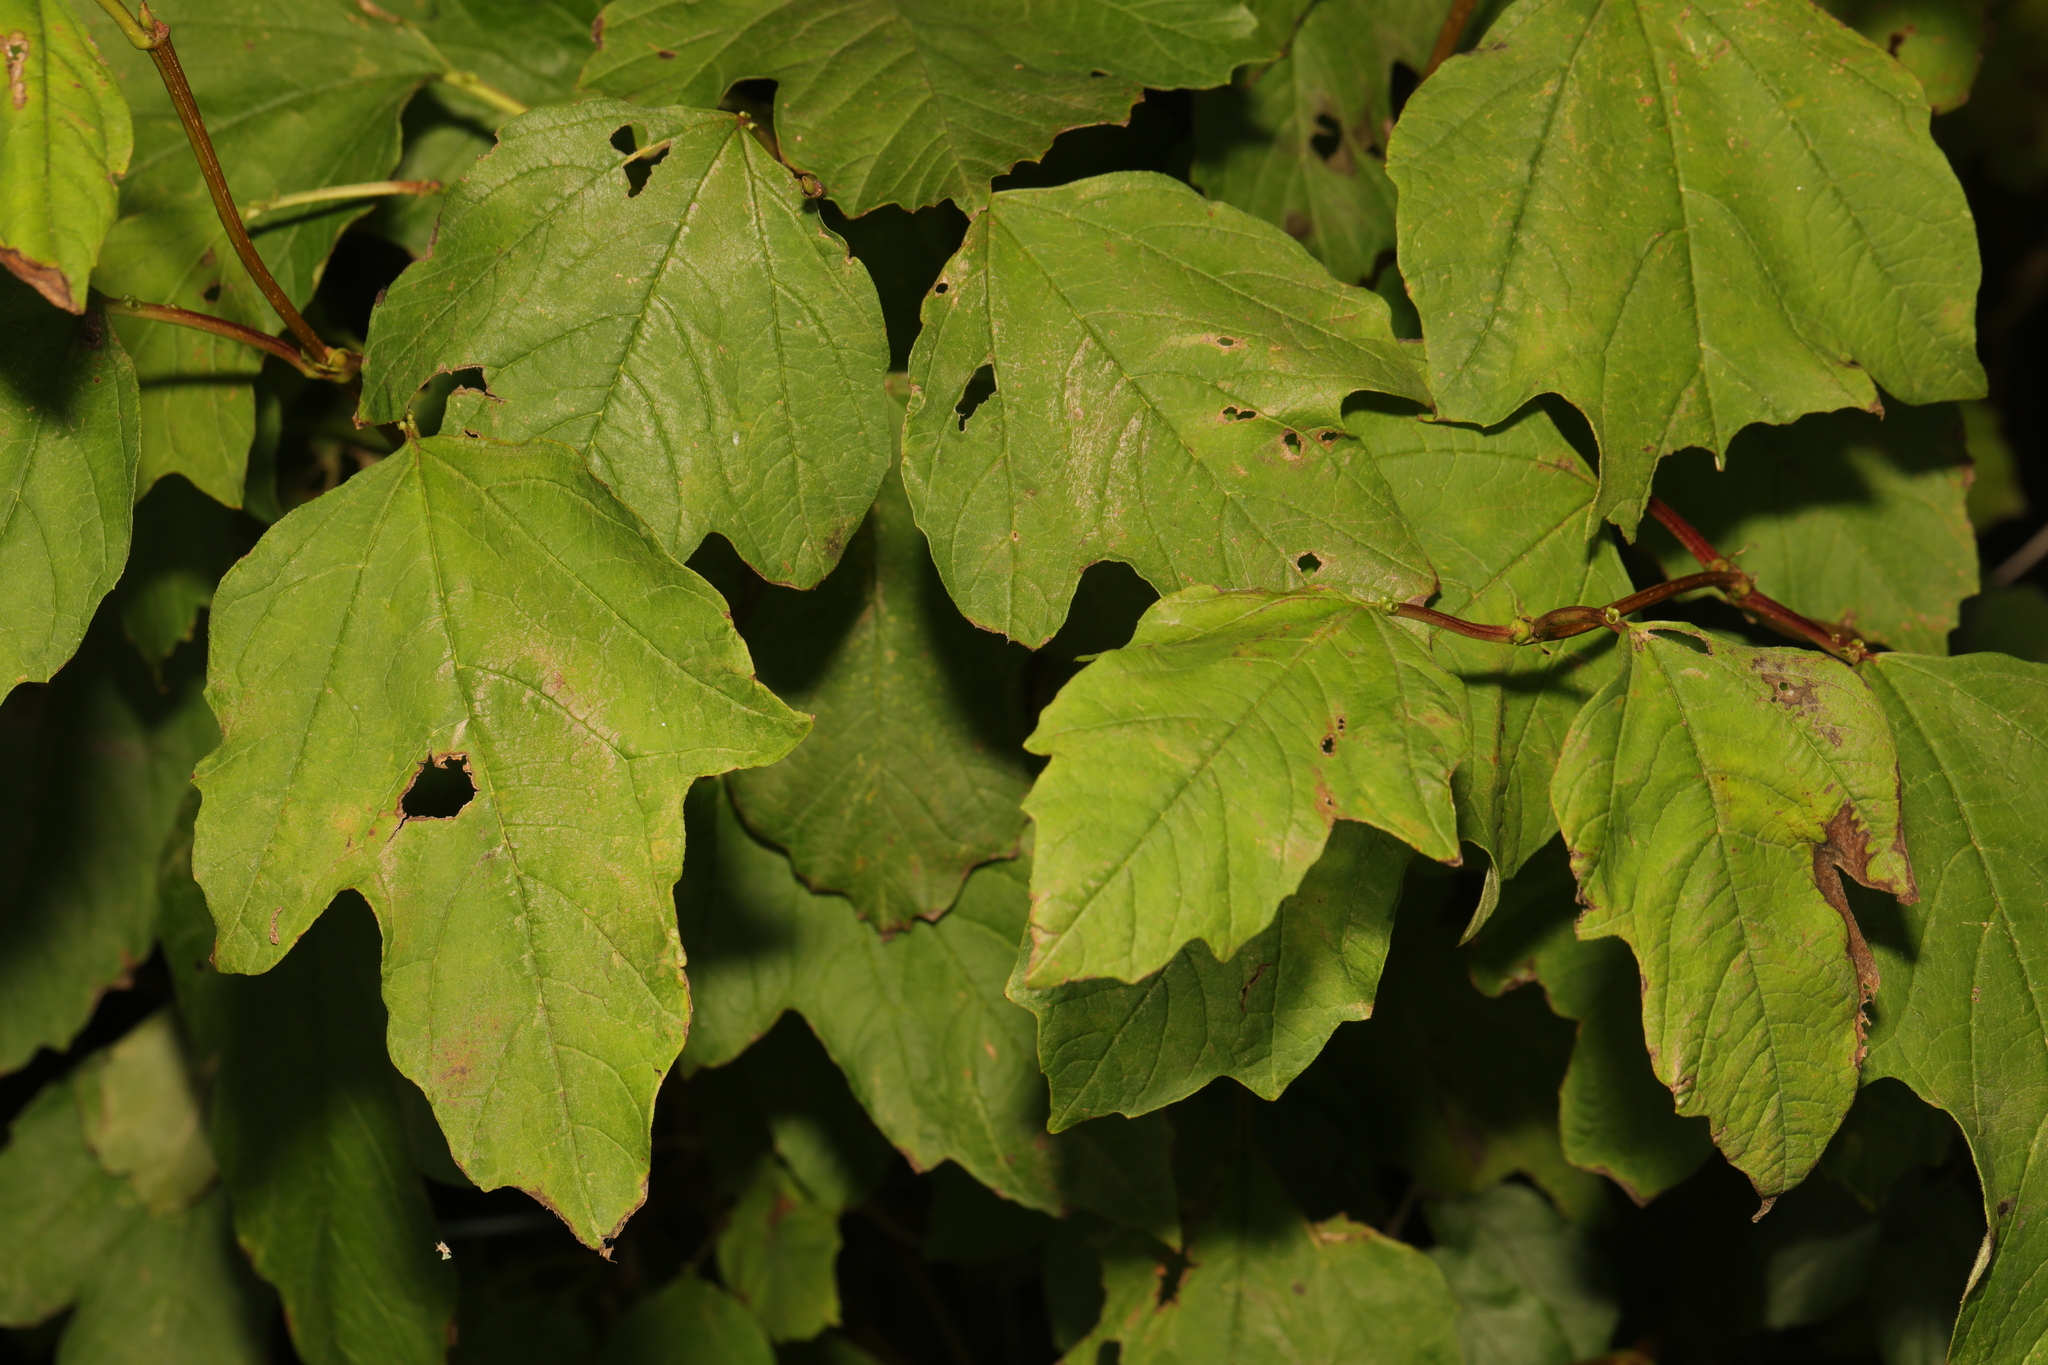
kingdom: Plantae
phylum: Tracheophyta
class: Magnoliopsida
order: Dipsacales
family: Viburnaceae
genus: Viburnum
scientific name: Viburnum opulus
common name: Guelder-rose
